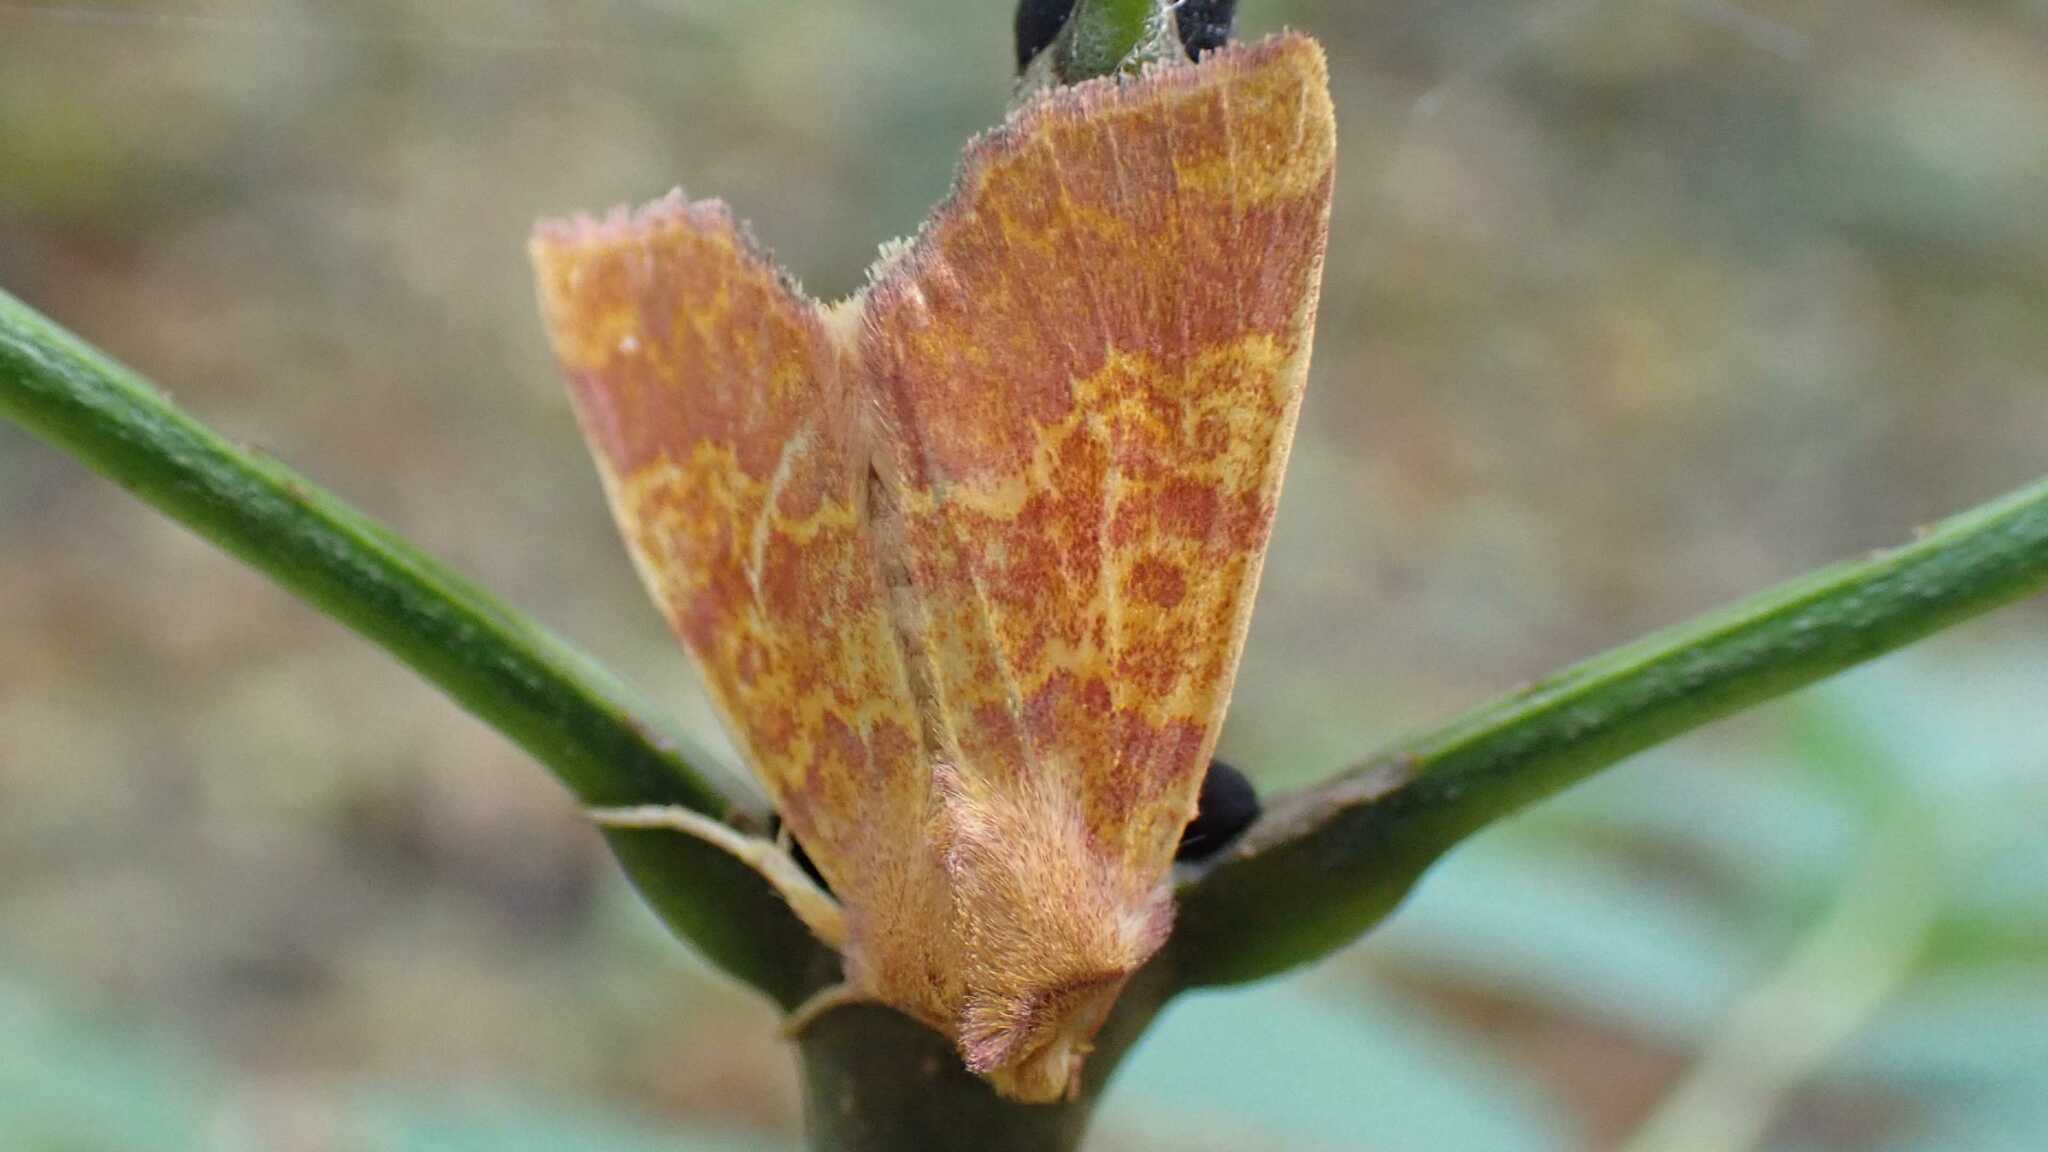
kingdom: Animalia
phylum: Arthropoda
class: Insecta
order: Lepidoptera
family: Noctuidae
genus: Tiliacea
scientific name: Tiliacea aurago
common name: Barred sallow
